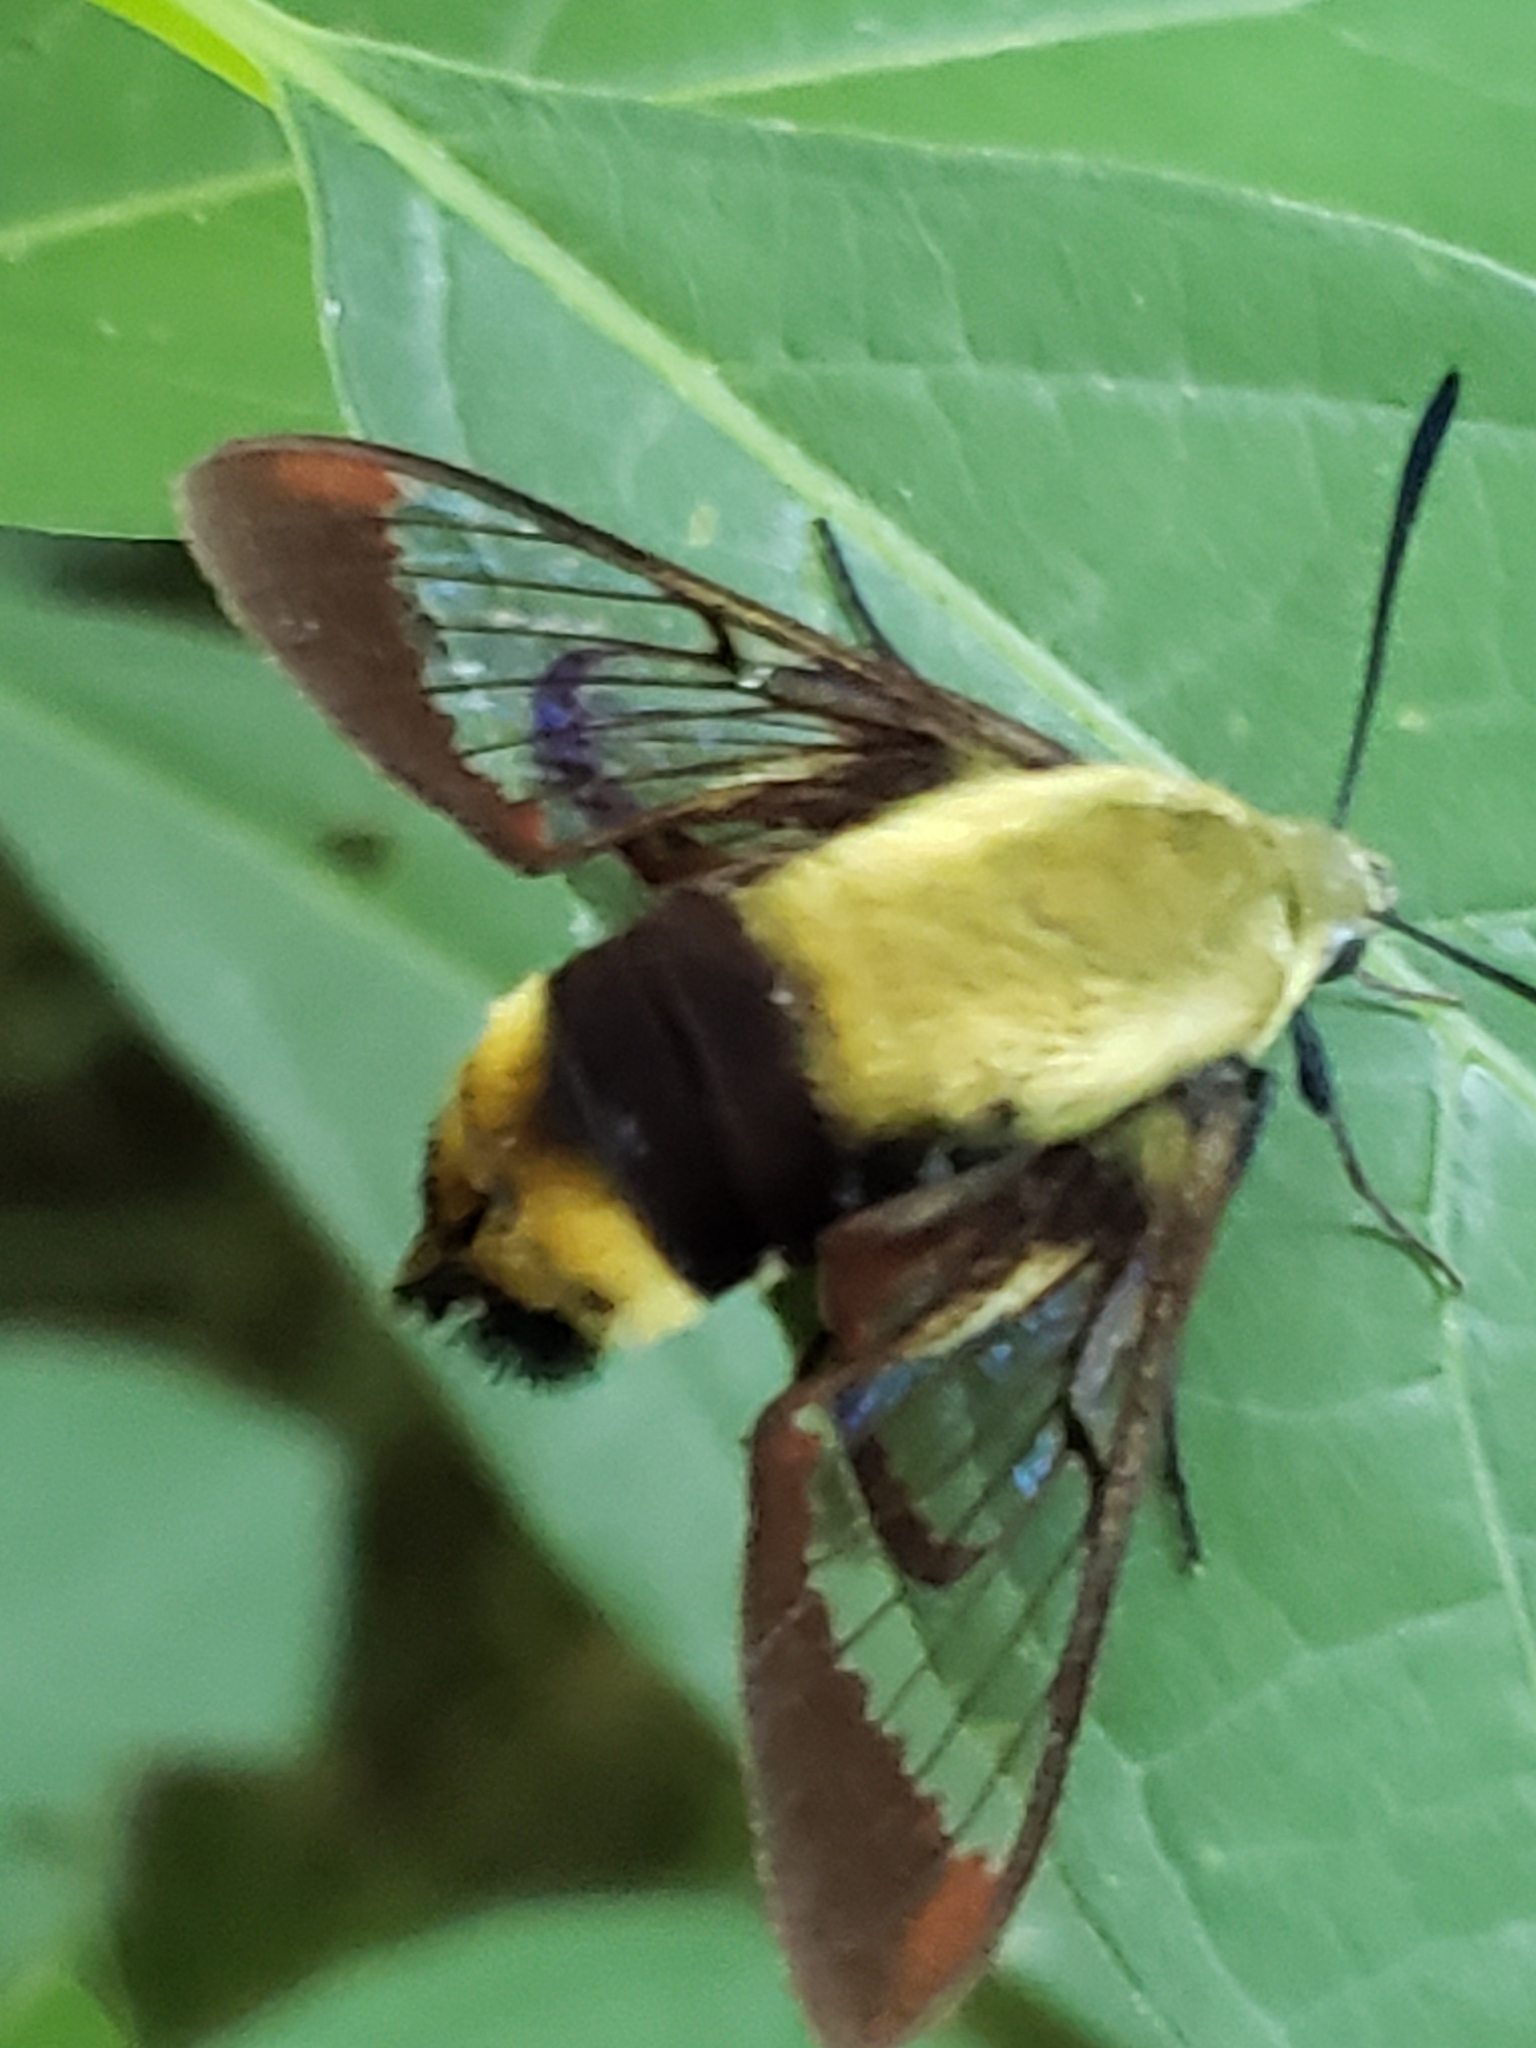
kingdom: Animalia
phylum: Arthropoda
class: Insecta
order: Lepidoptera
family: Sphingidae
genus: Hemaris
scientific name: Hemaris diffinis
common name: Bumblebee moth
